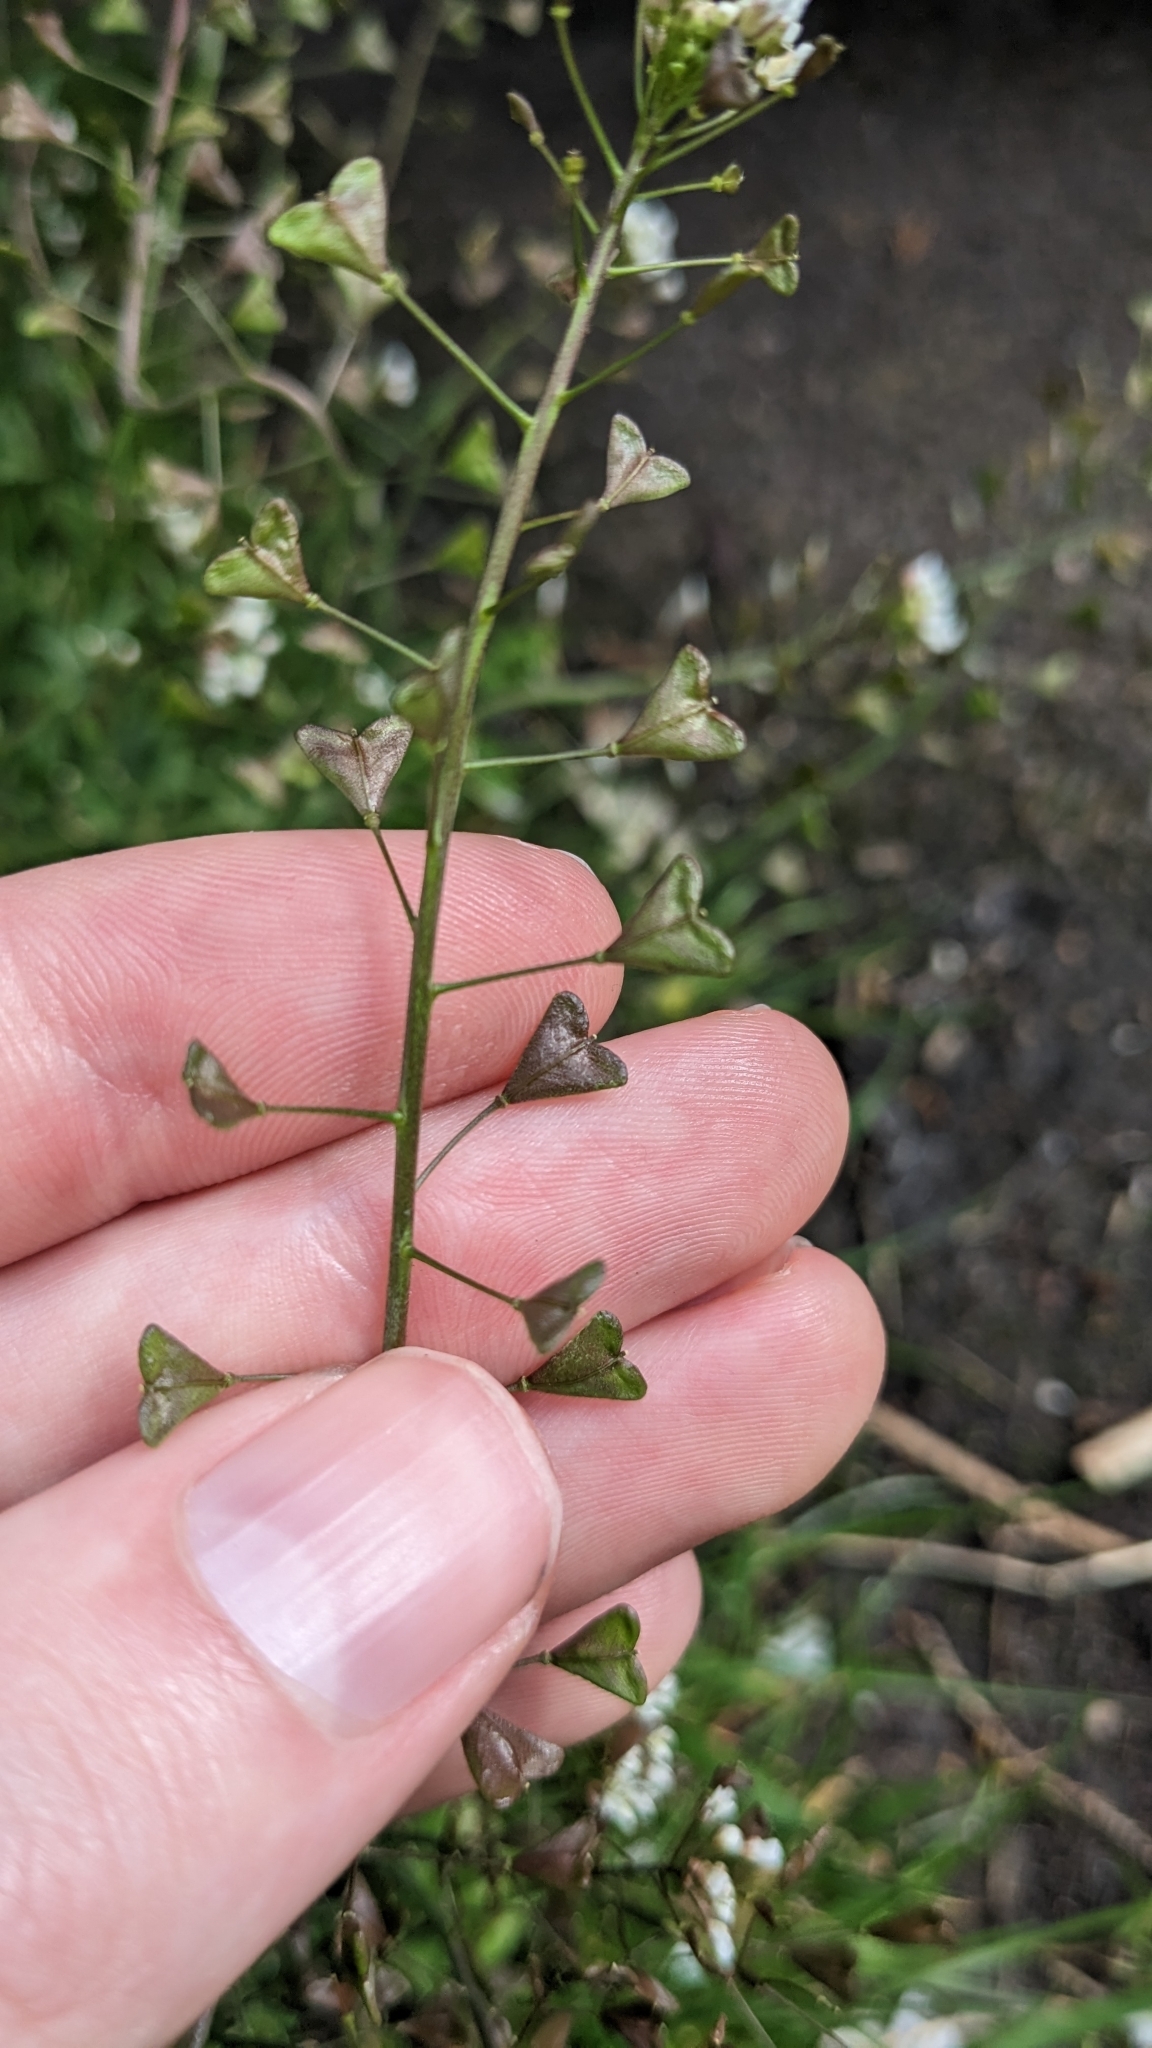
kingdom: Plantae
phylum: Tracheophyta
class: Magnoliopsida
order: Brassicales
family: Brassicaceae
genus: Capsella
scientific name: Capsella bursa-pastoris
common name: Shepherd's purse
